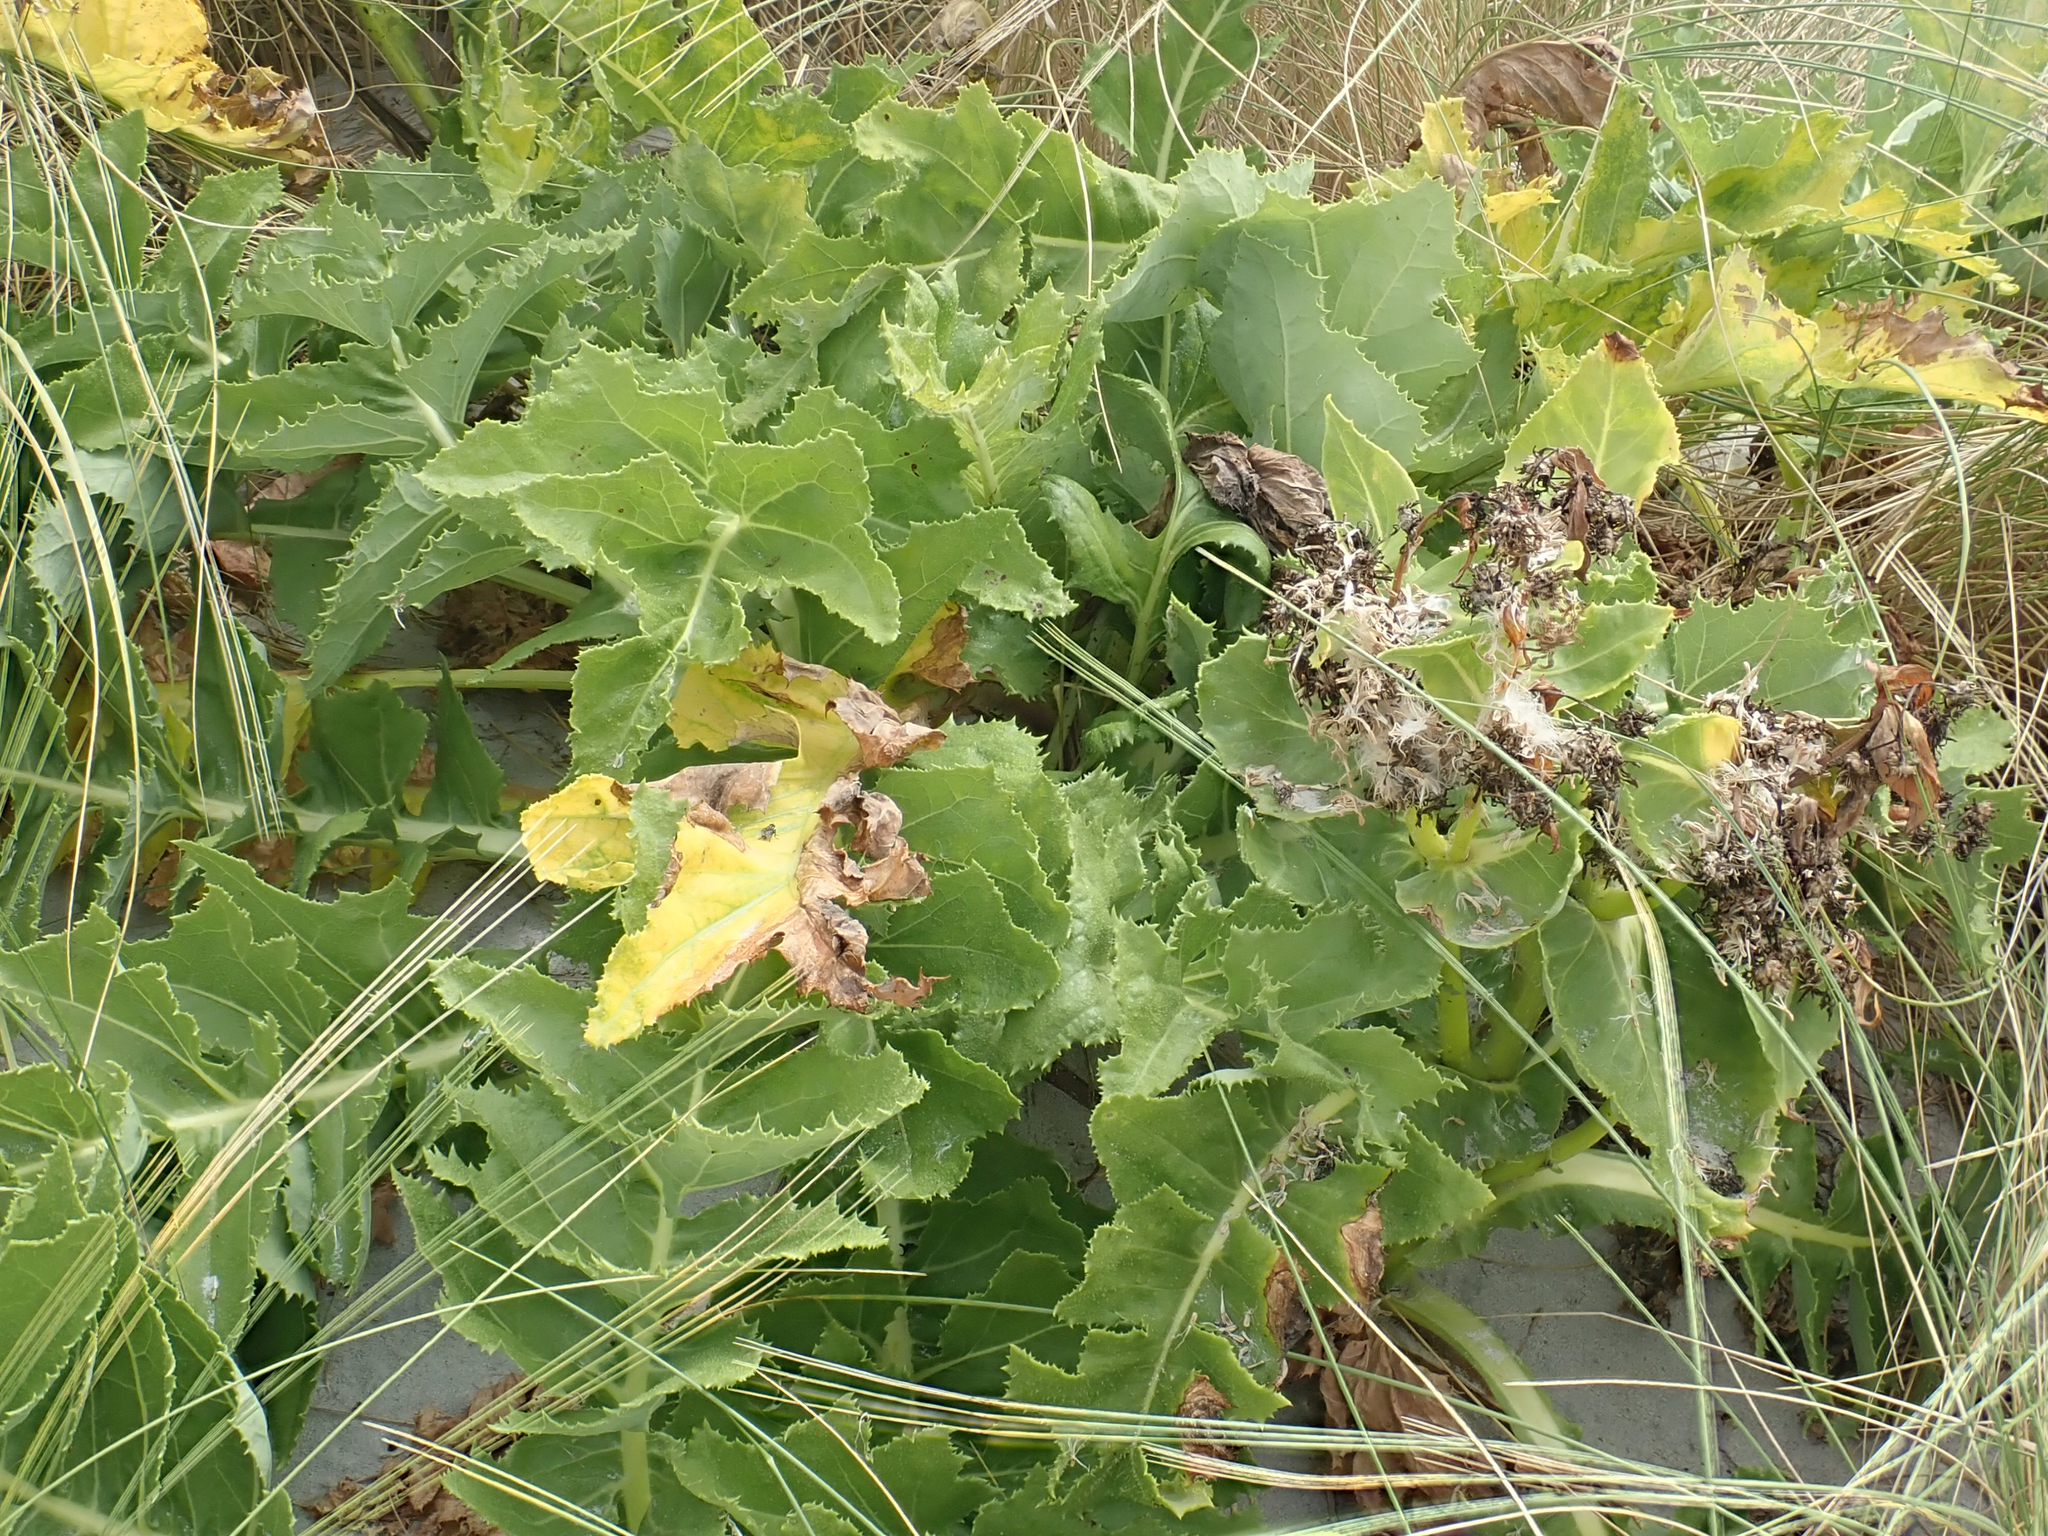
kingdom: Plantae
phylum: Tracheophyta
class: Magnoliopsida
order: Asterales
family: Asteraceae
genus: Sonchus
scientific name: Sonchus grandifolius
